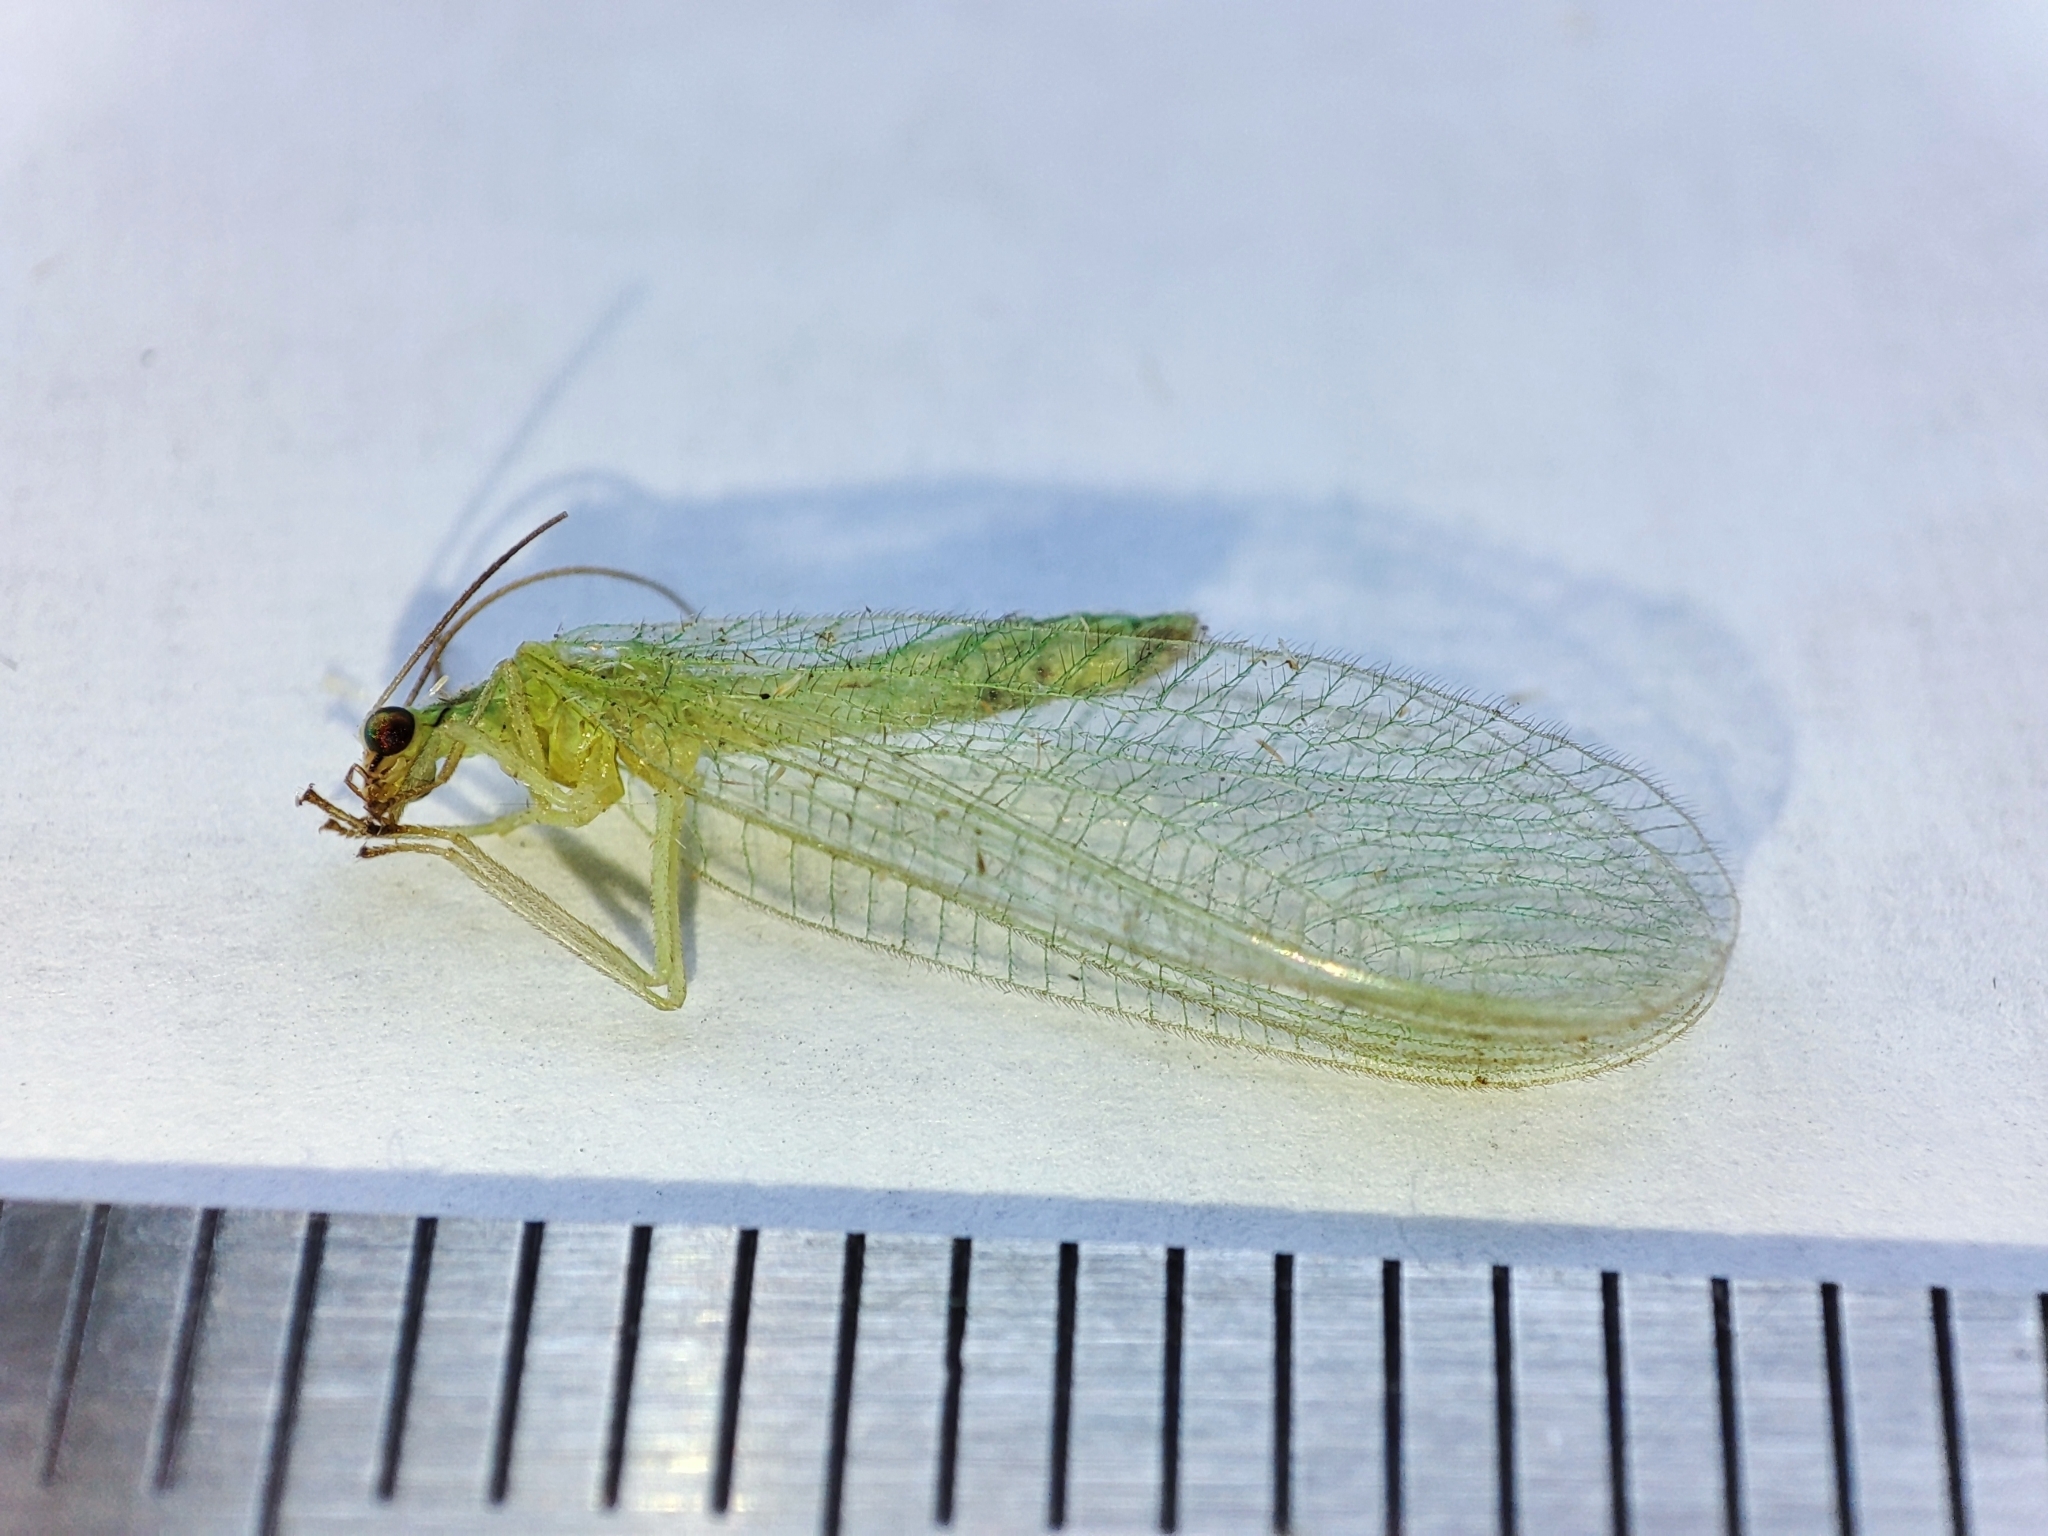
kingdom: Animalia
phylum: Arthropoda
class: Insecta
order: Neuroptera
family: Chrysopidae
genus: Chrysoperla
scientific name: Chrysoperla
